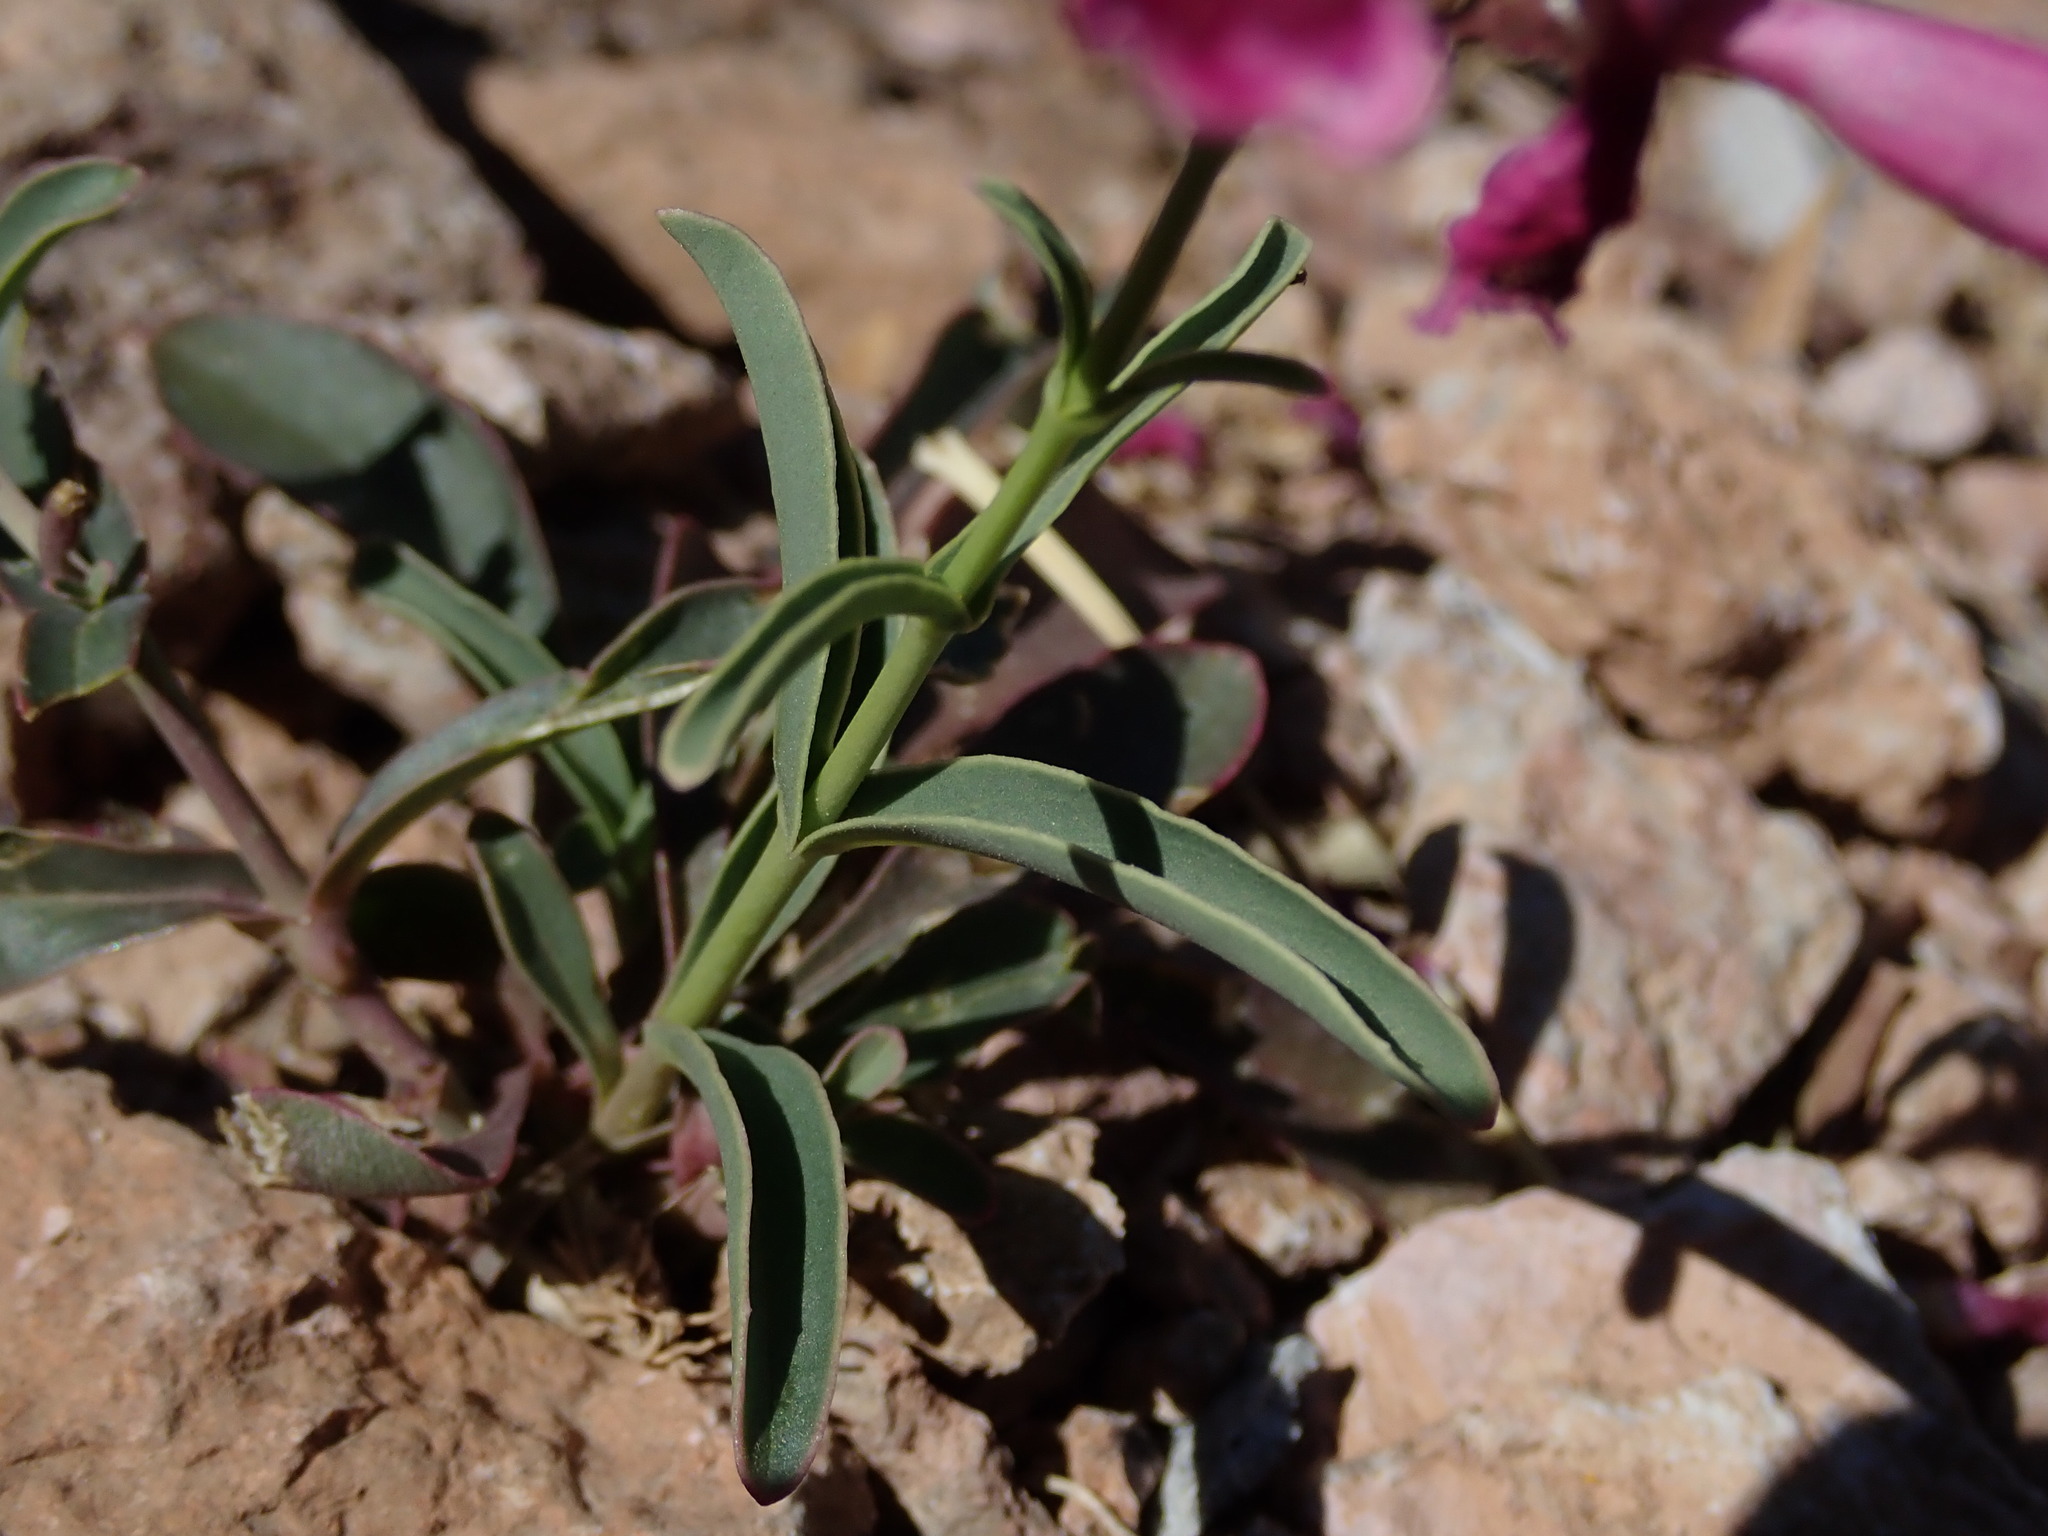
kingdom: Plantae
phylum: Tracheophyta
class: Magnoliopsida
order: Lamiales
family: Plantaginaceae
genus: Penstemon
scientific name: Penstemon parryi
